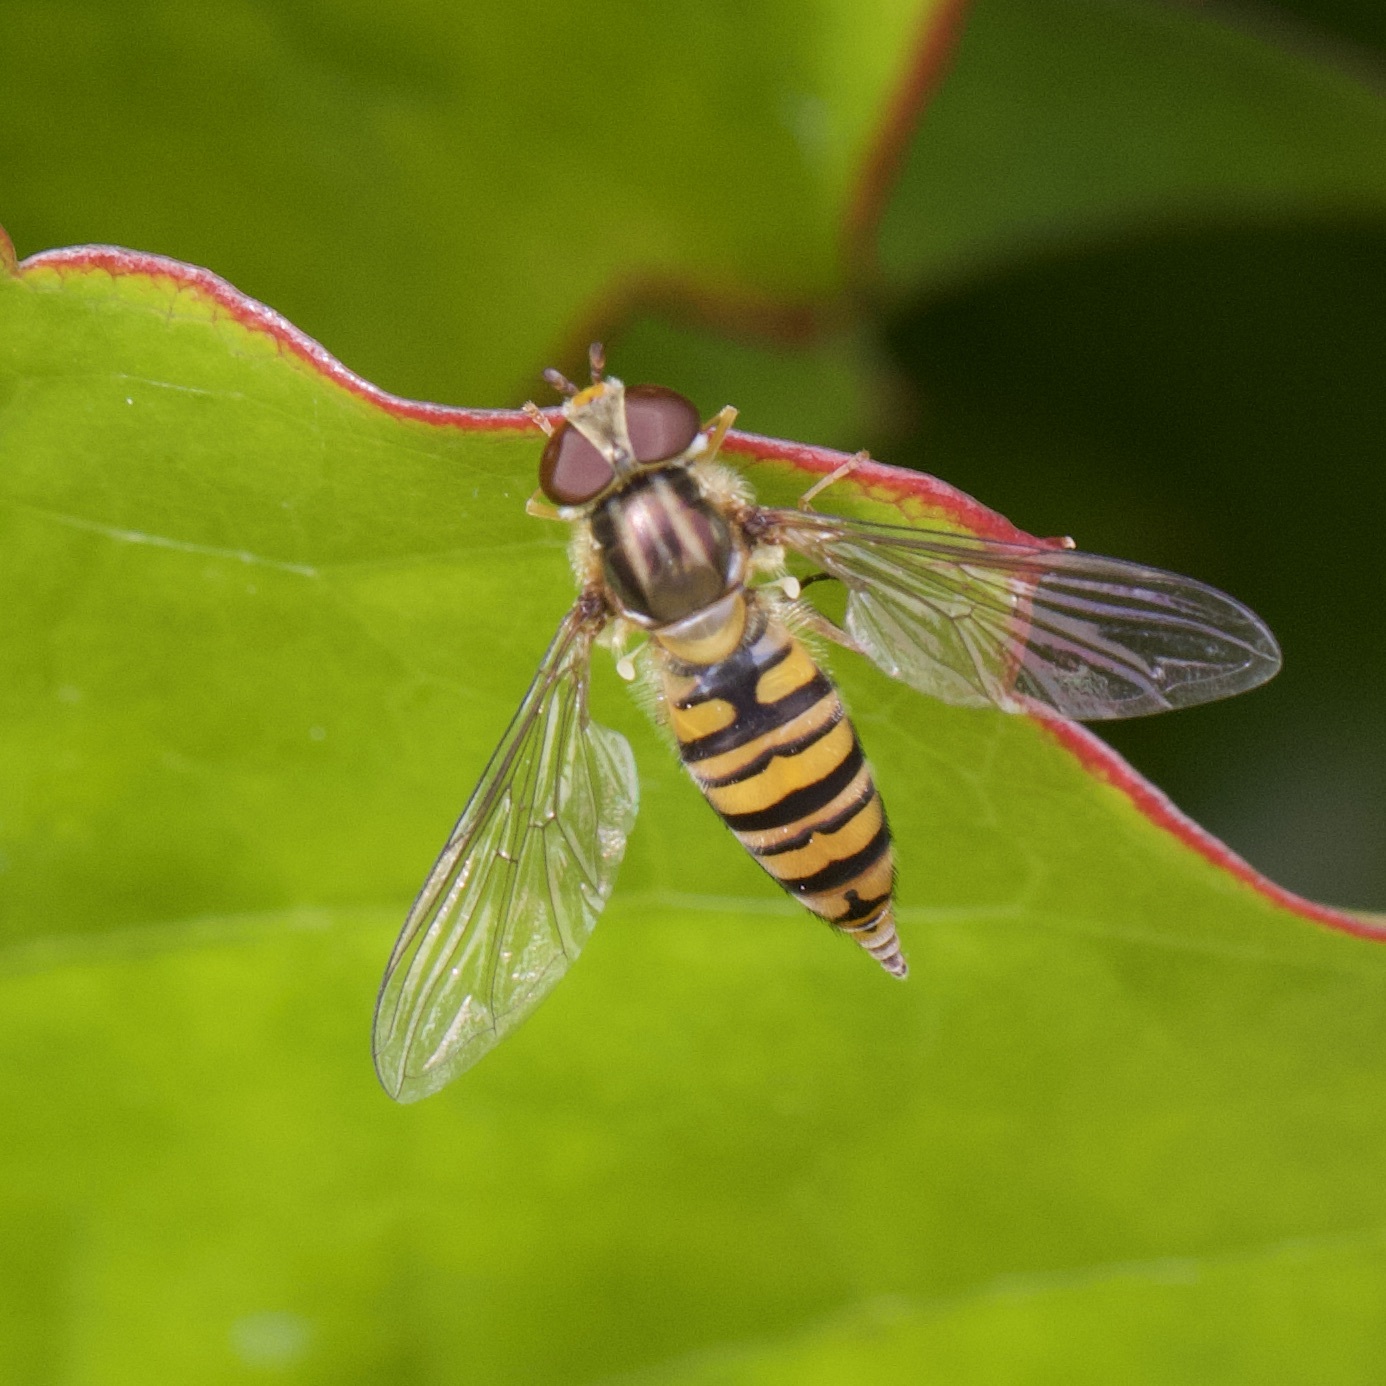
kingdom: Animalia
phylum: Arthropoda
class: Insecta
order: Diptera
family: Syrphidae
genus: Episyrphus
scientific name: Episyrphus balteatus
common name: Marmalade hoverfly
